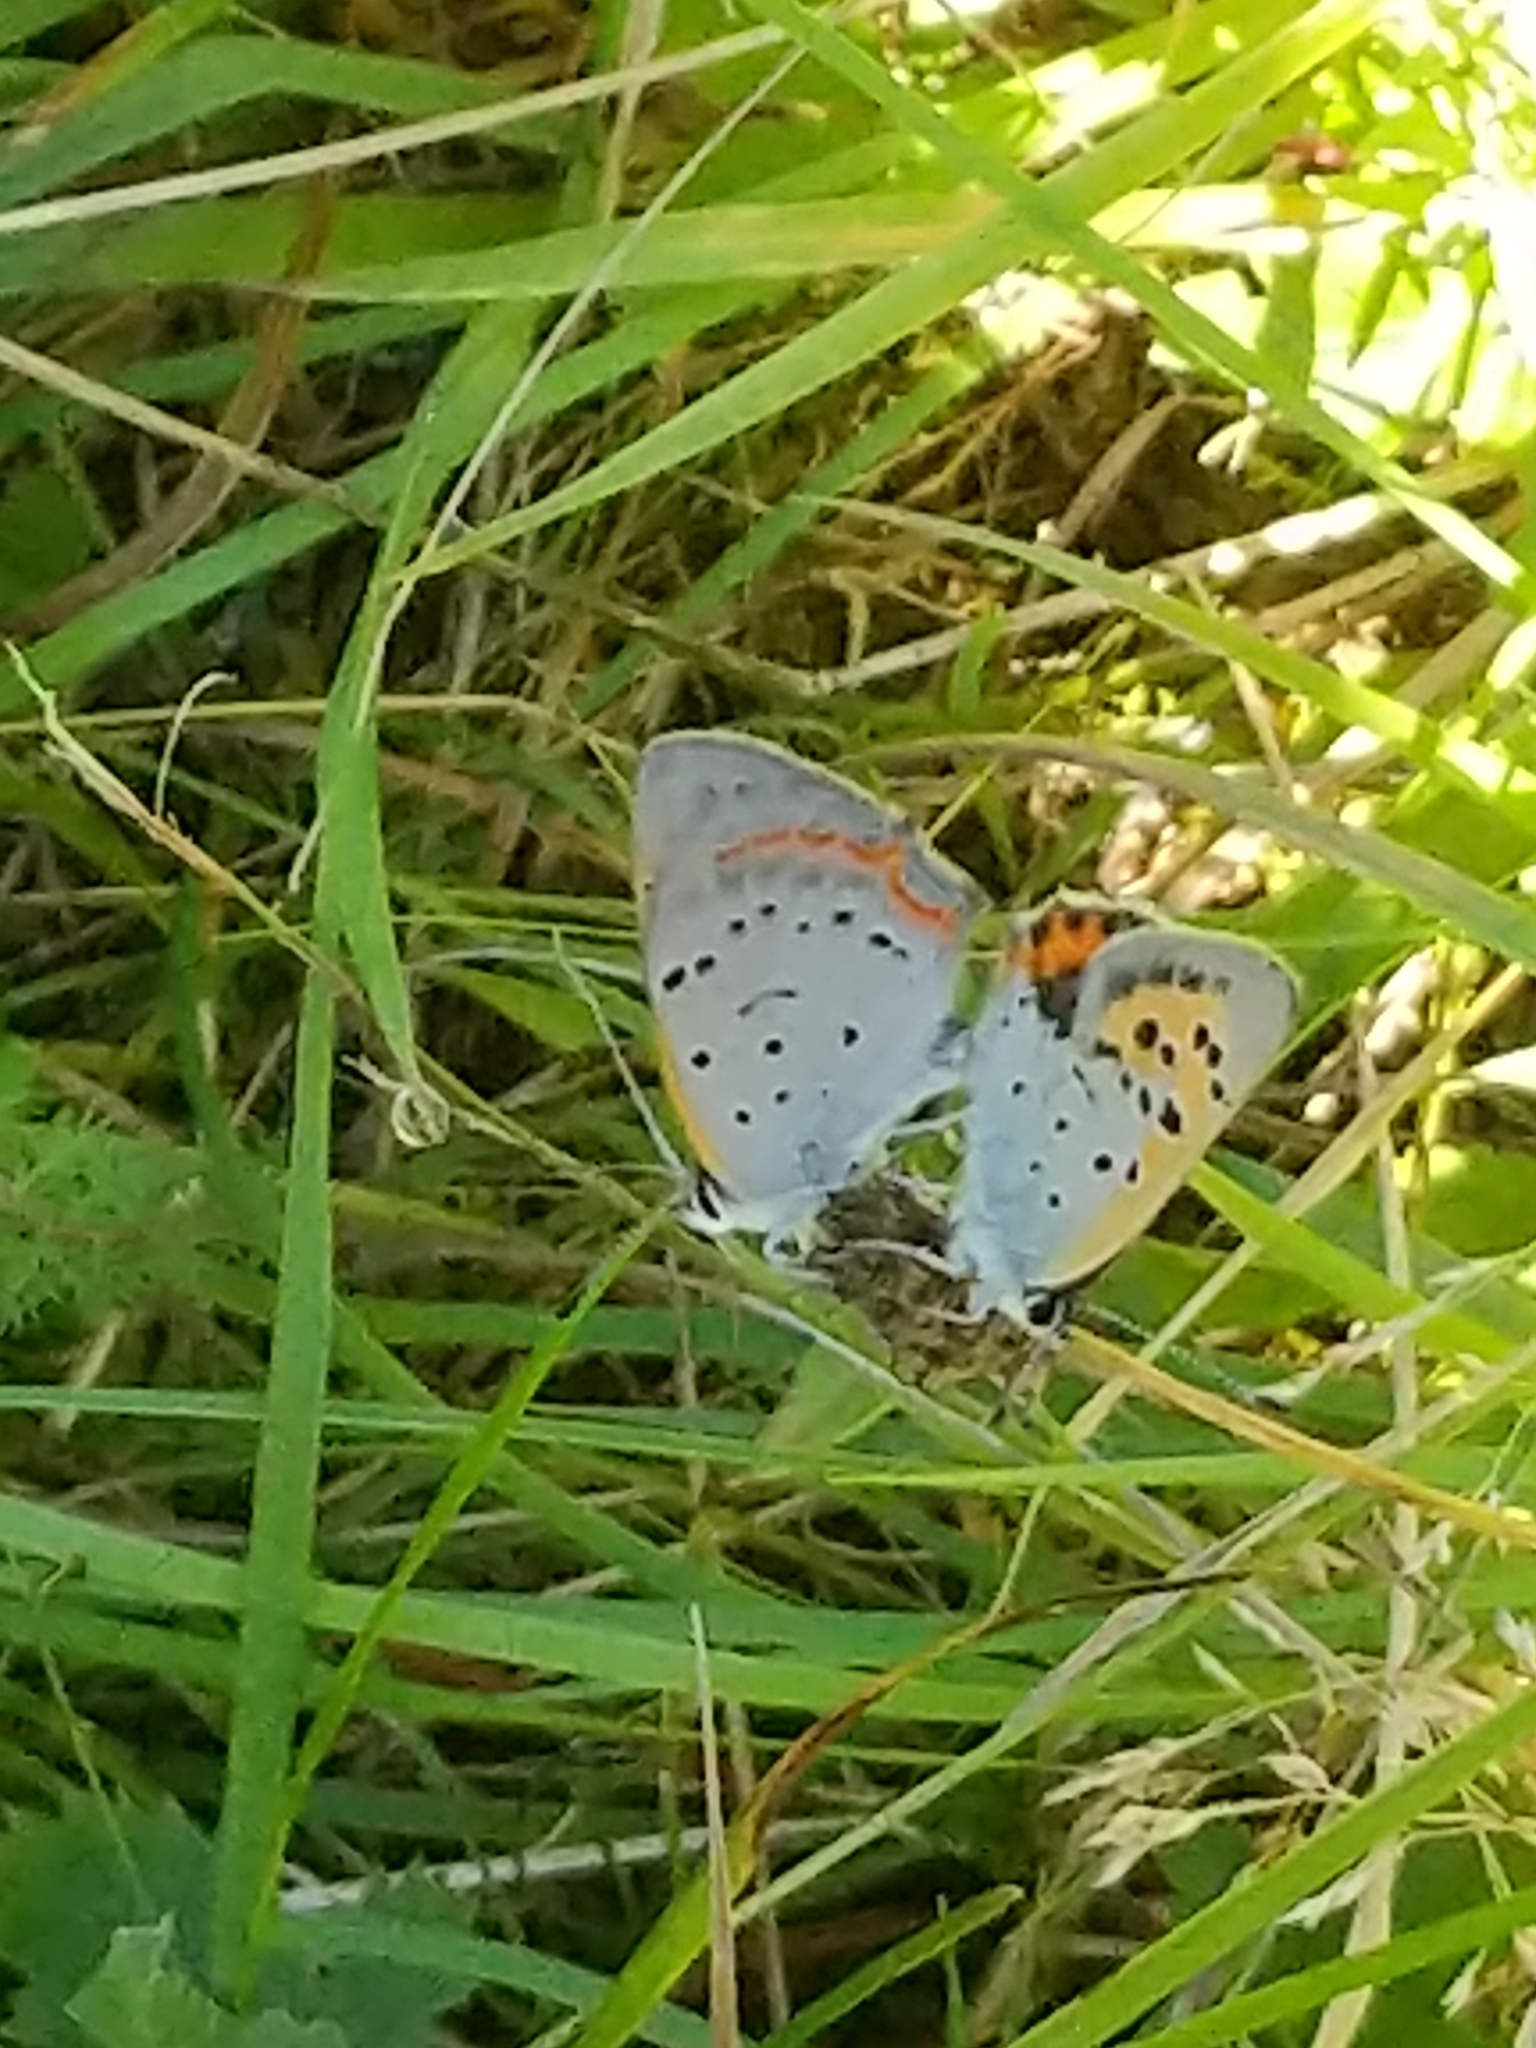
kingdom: Animalia
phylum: Arthropoda
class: Insecta
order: Lepidoptera
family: Lycaenidae
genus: Lycaena
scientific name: Lycaena hypophlaeas
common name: American copper
